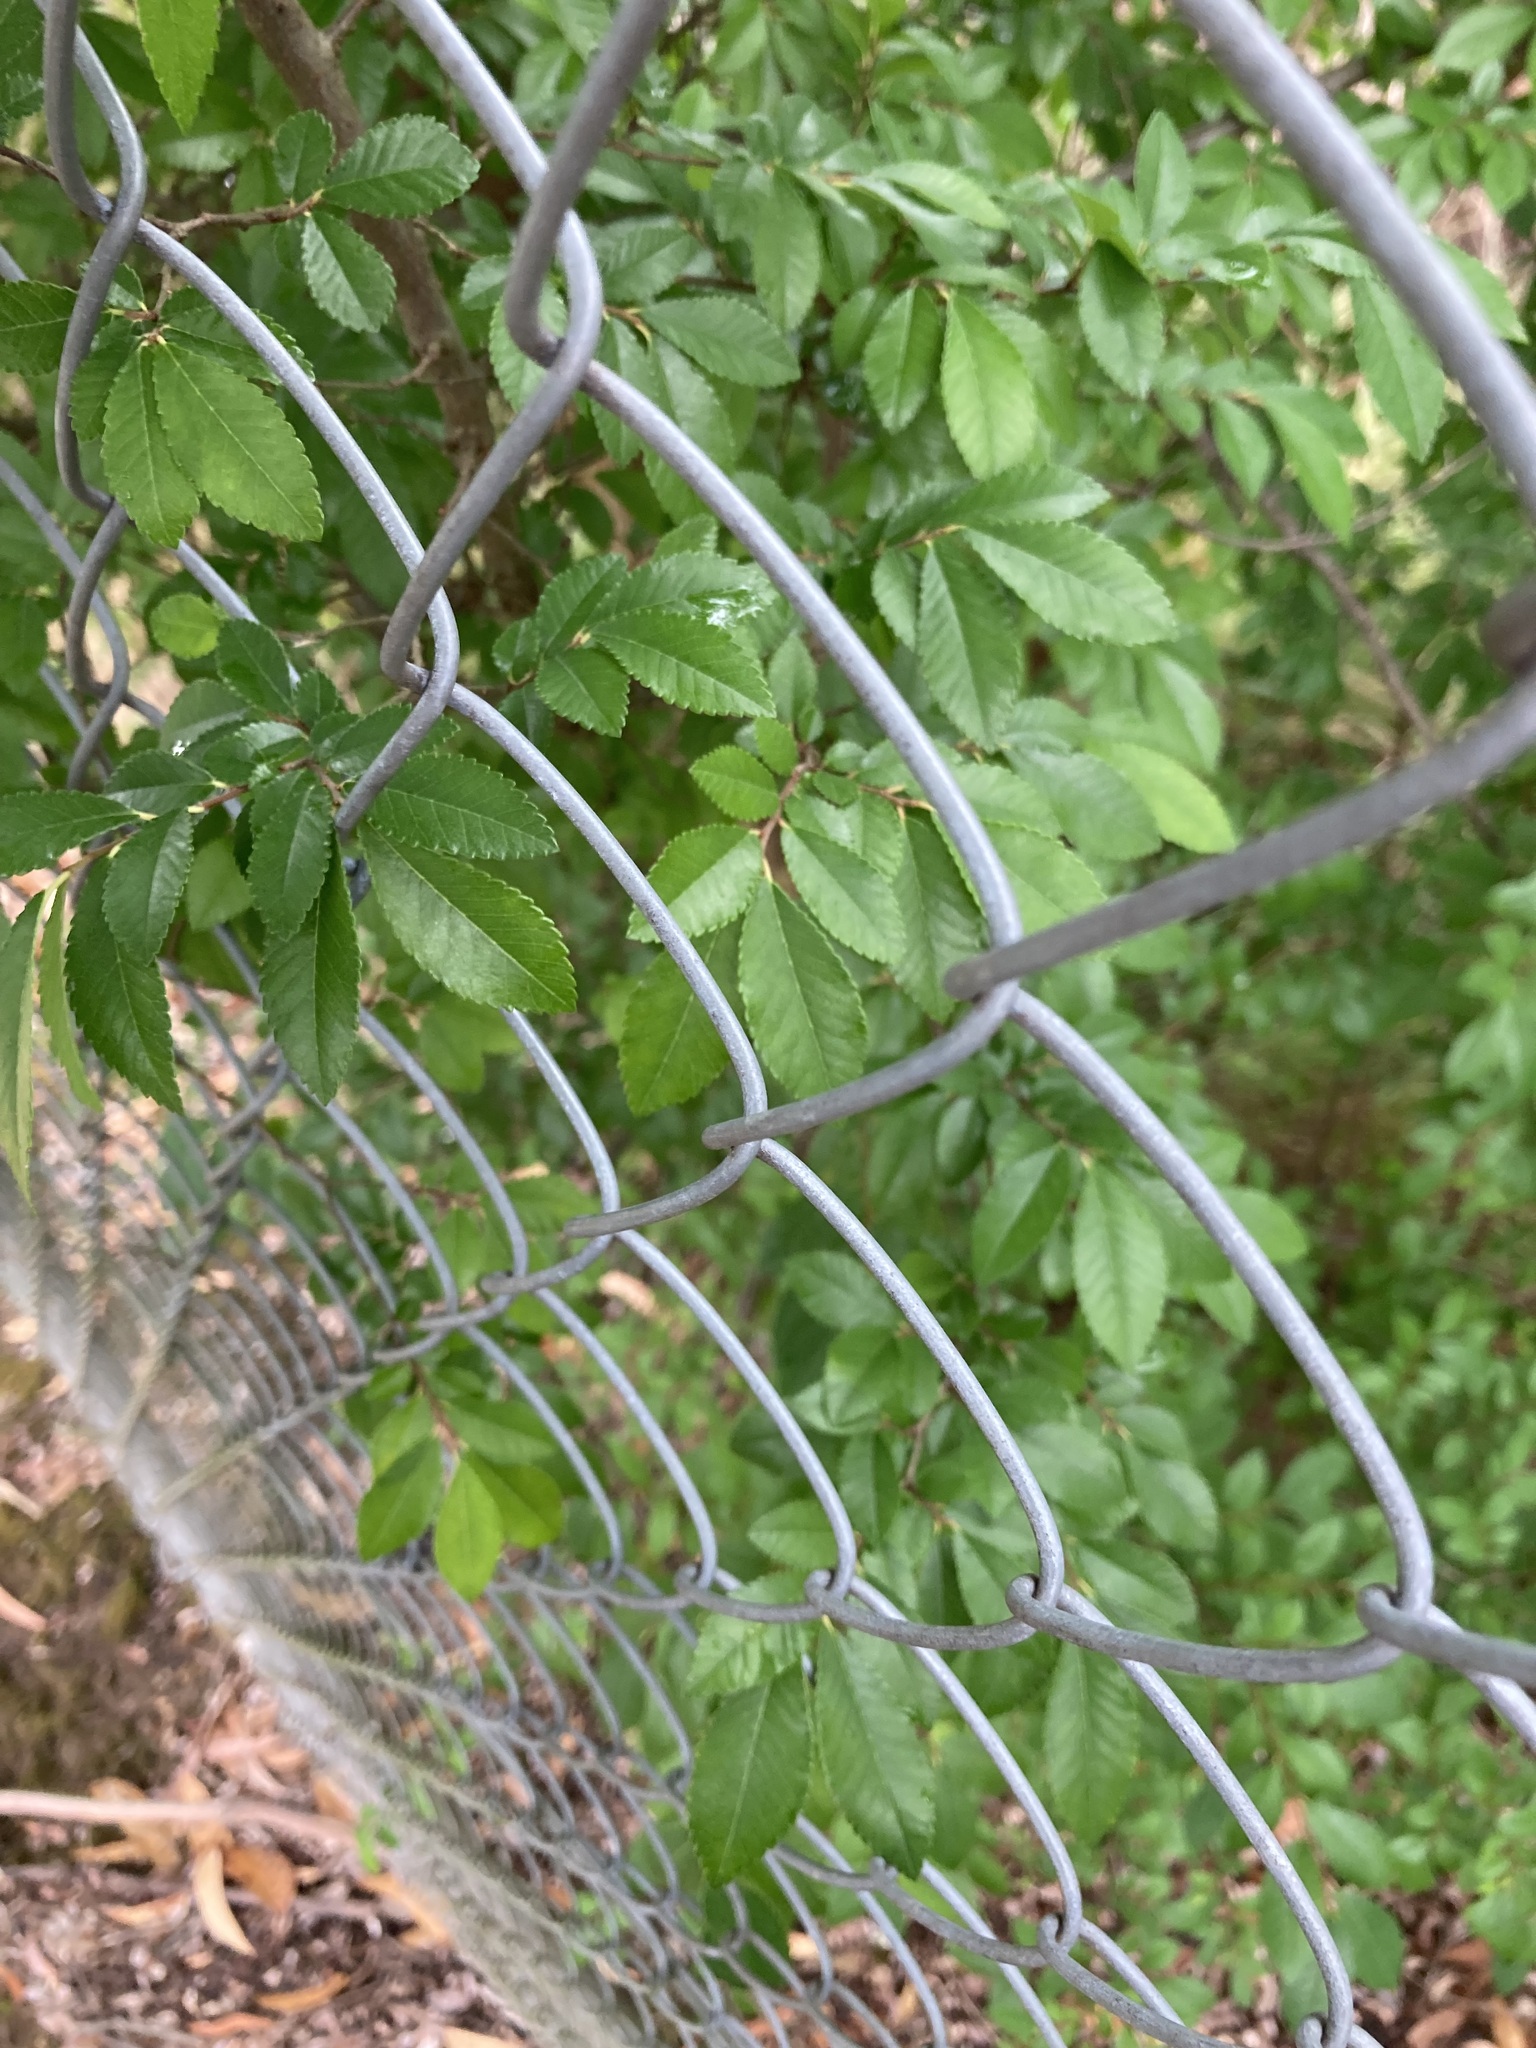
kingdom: Plantae
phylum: Tracheophyta
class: Magnoliopsida
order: Rosales
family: Ulmaceae
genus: Ulmus
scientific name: Ulmus parvifolia
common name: Chinese elm
